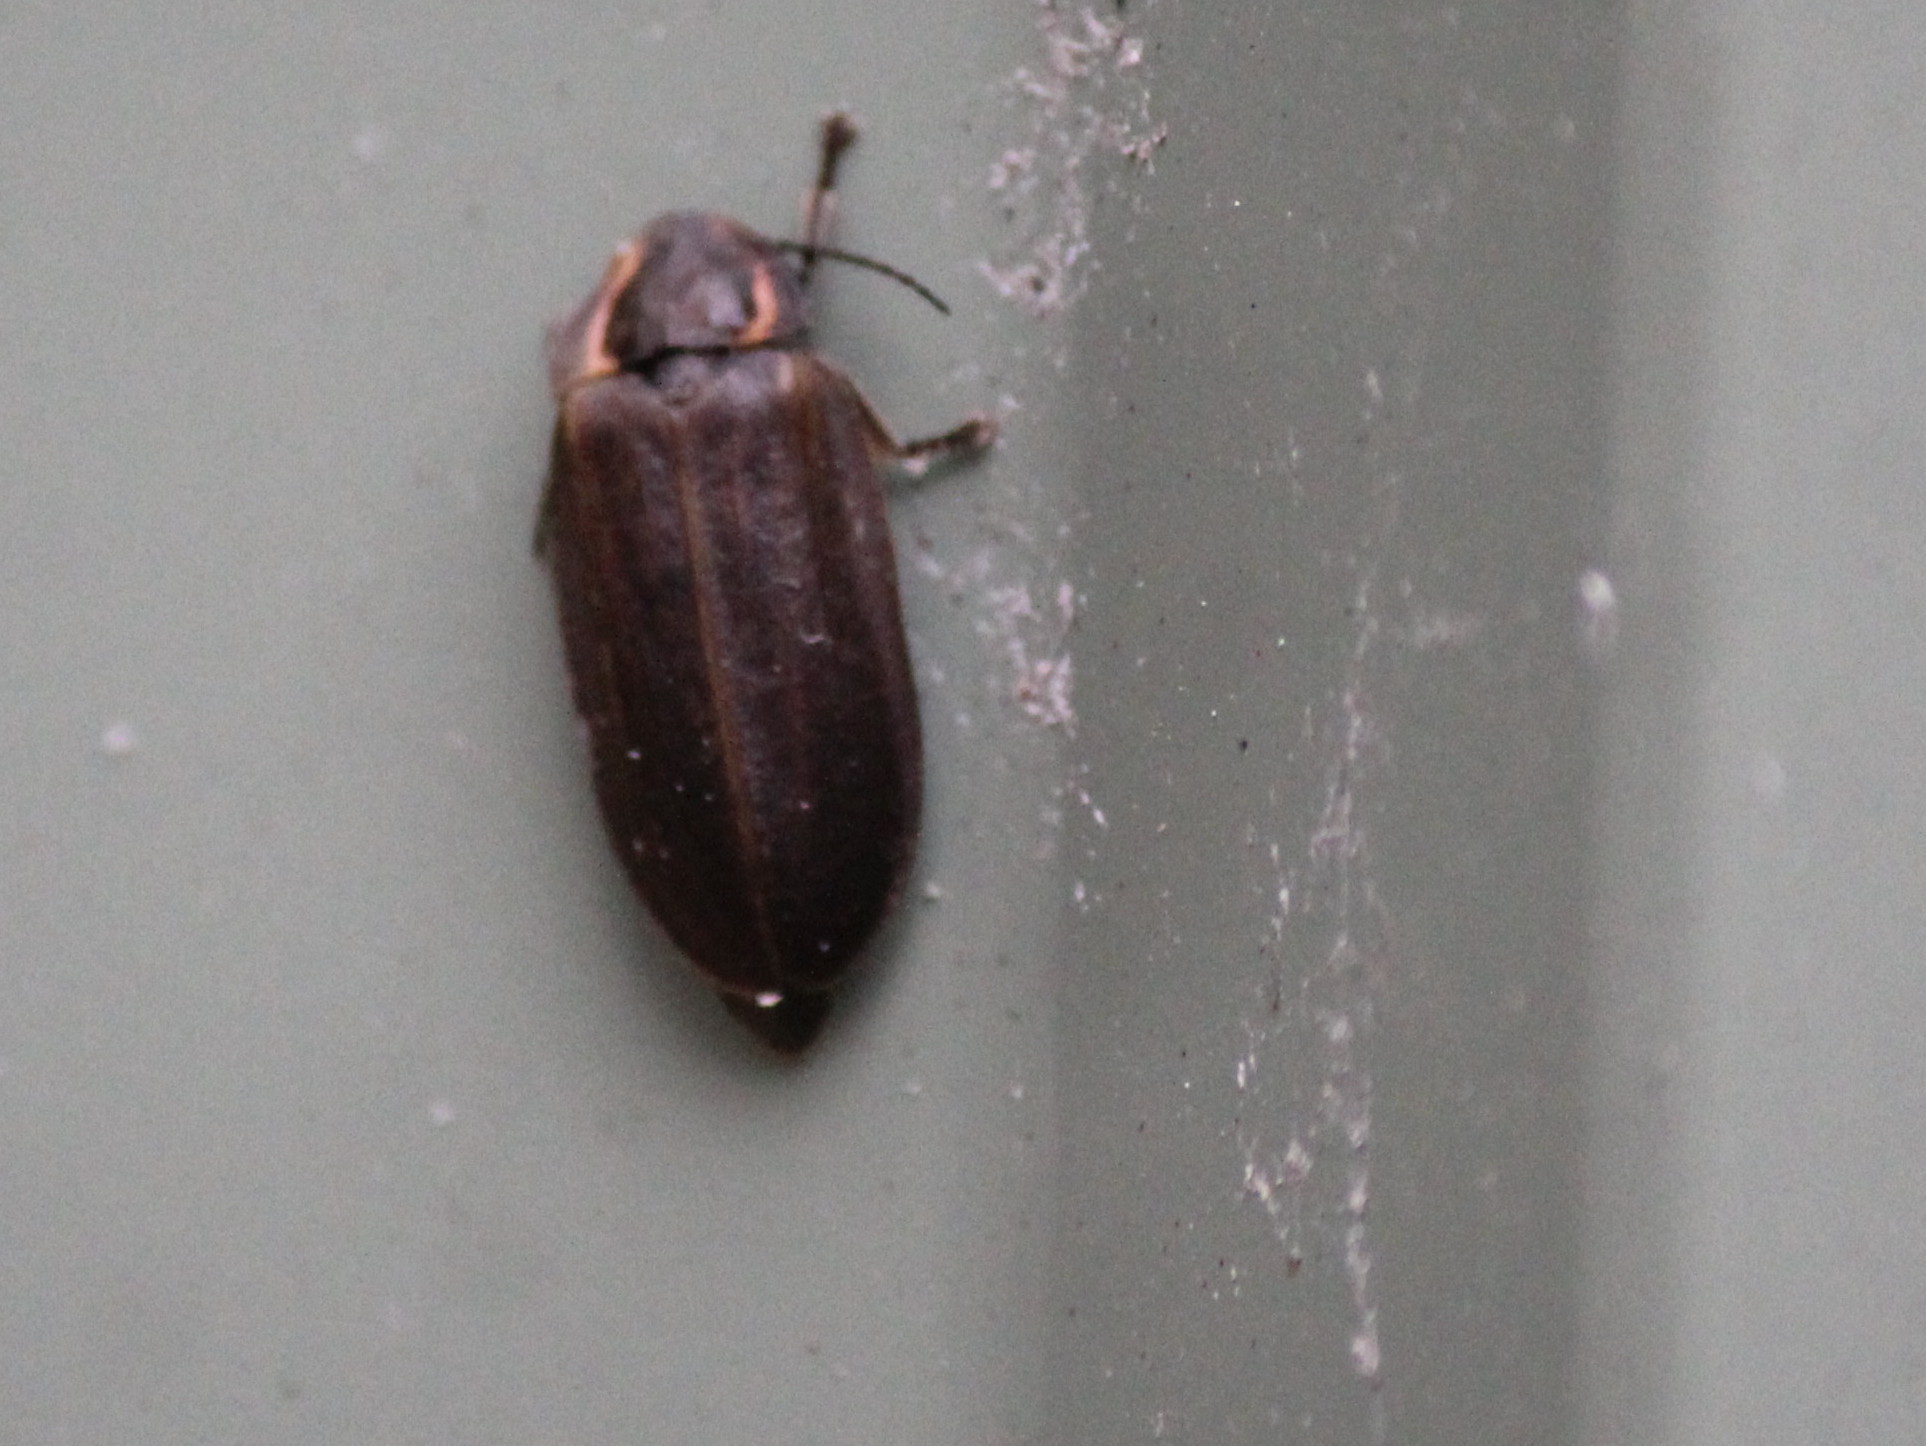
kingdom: Animalia
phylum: Arthropoda
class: Insecta
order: Coleoptera
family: Lampyridae
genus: Photinus
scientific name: Photinus corrusca
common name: Winter firefly
